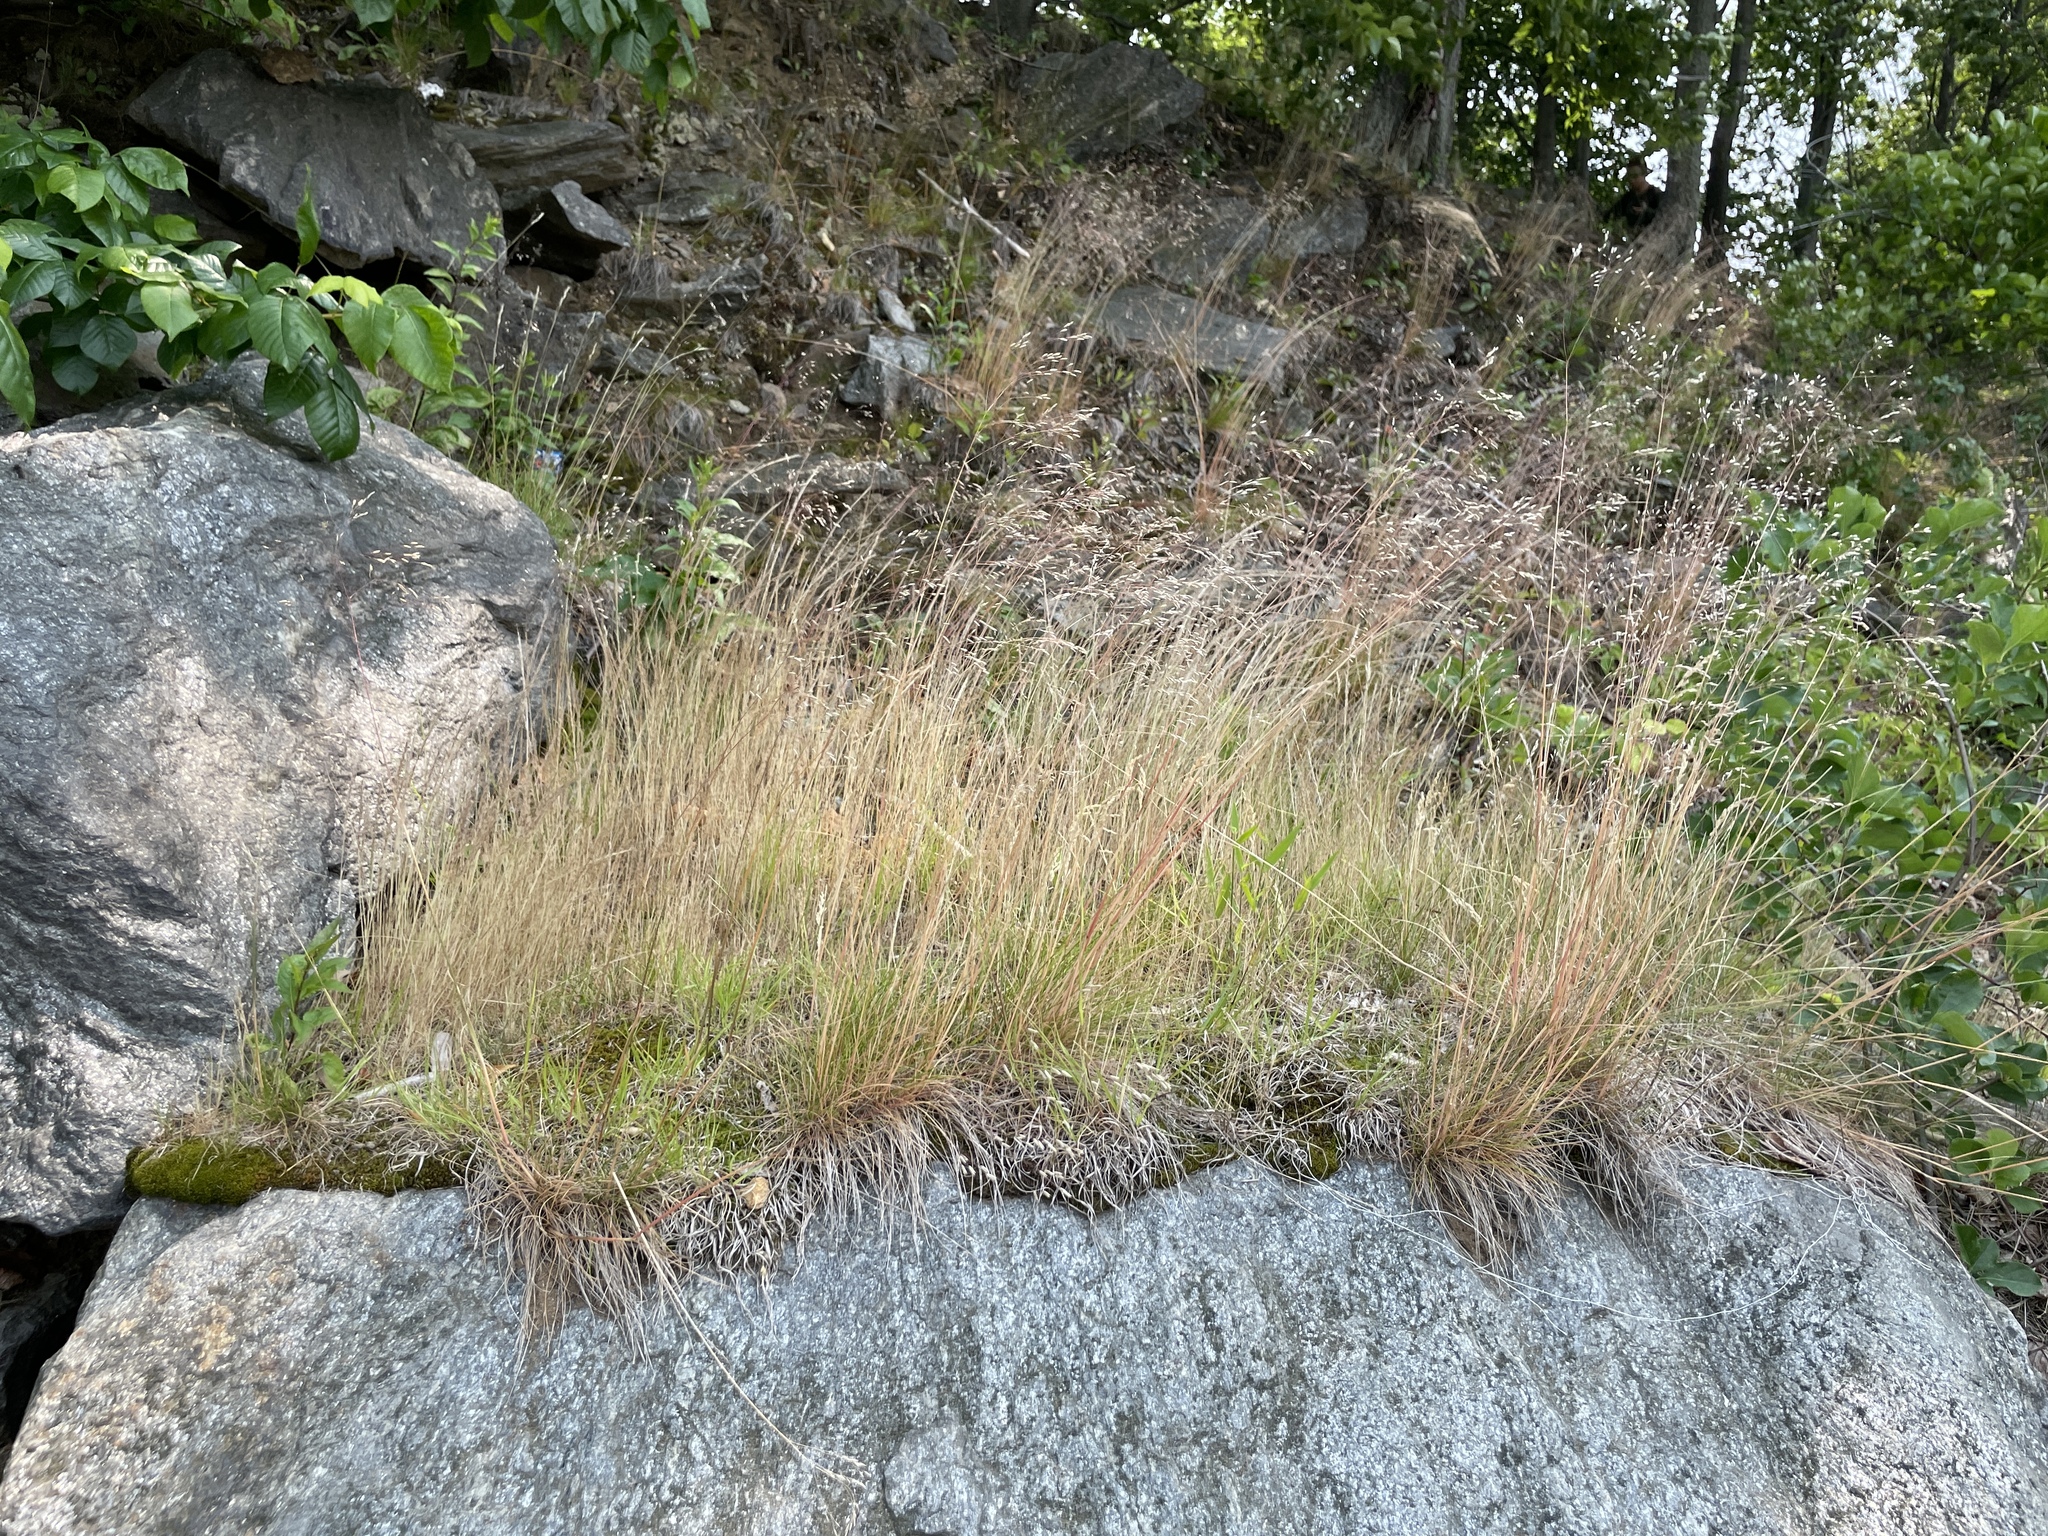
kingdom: Plantae
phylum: Tracheophyta
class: Liliopsida
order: Poales
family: Poaceae
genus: Avenella
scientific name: Avenella flexuosa
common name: Wavy hairgrass
